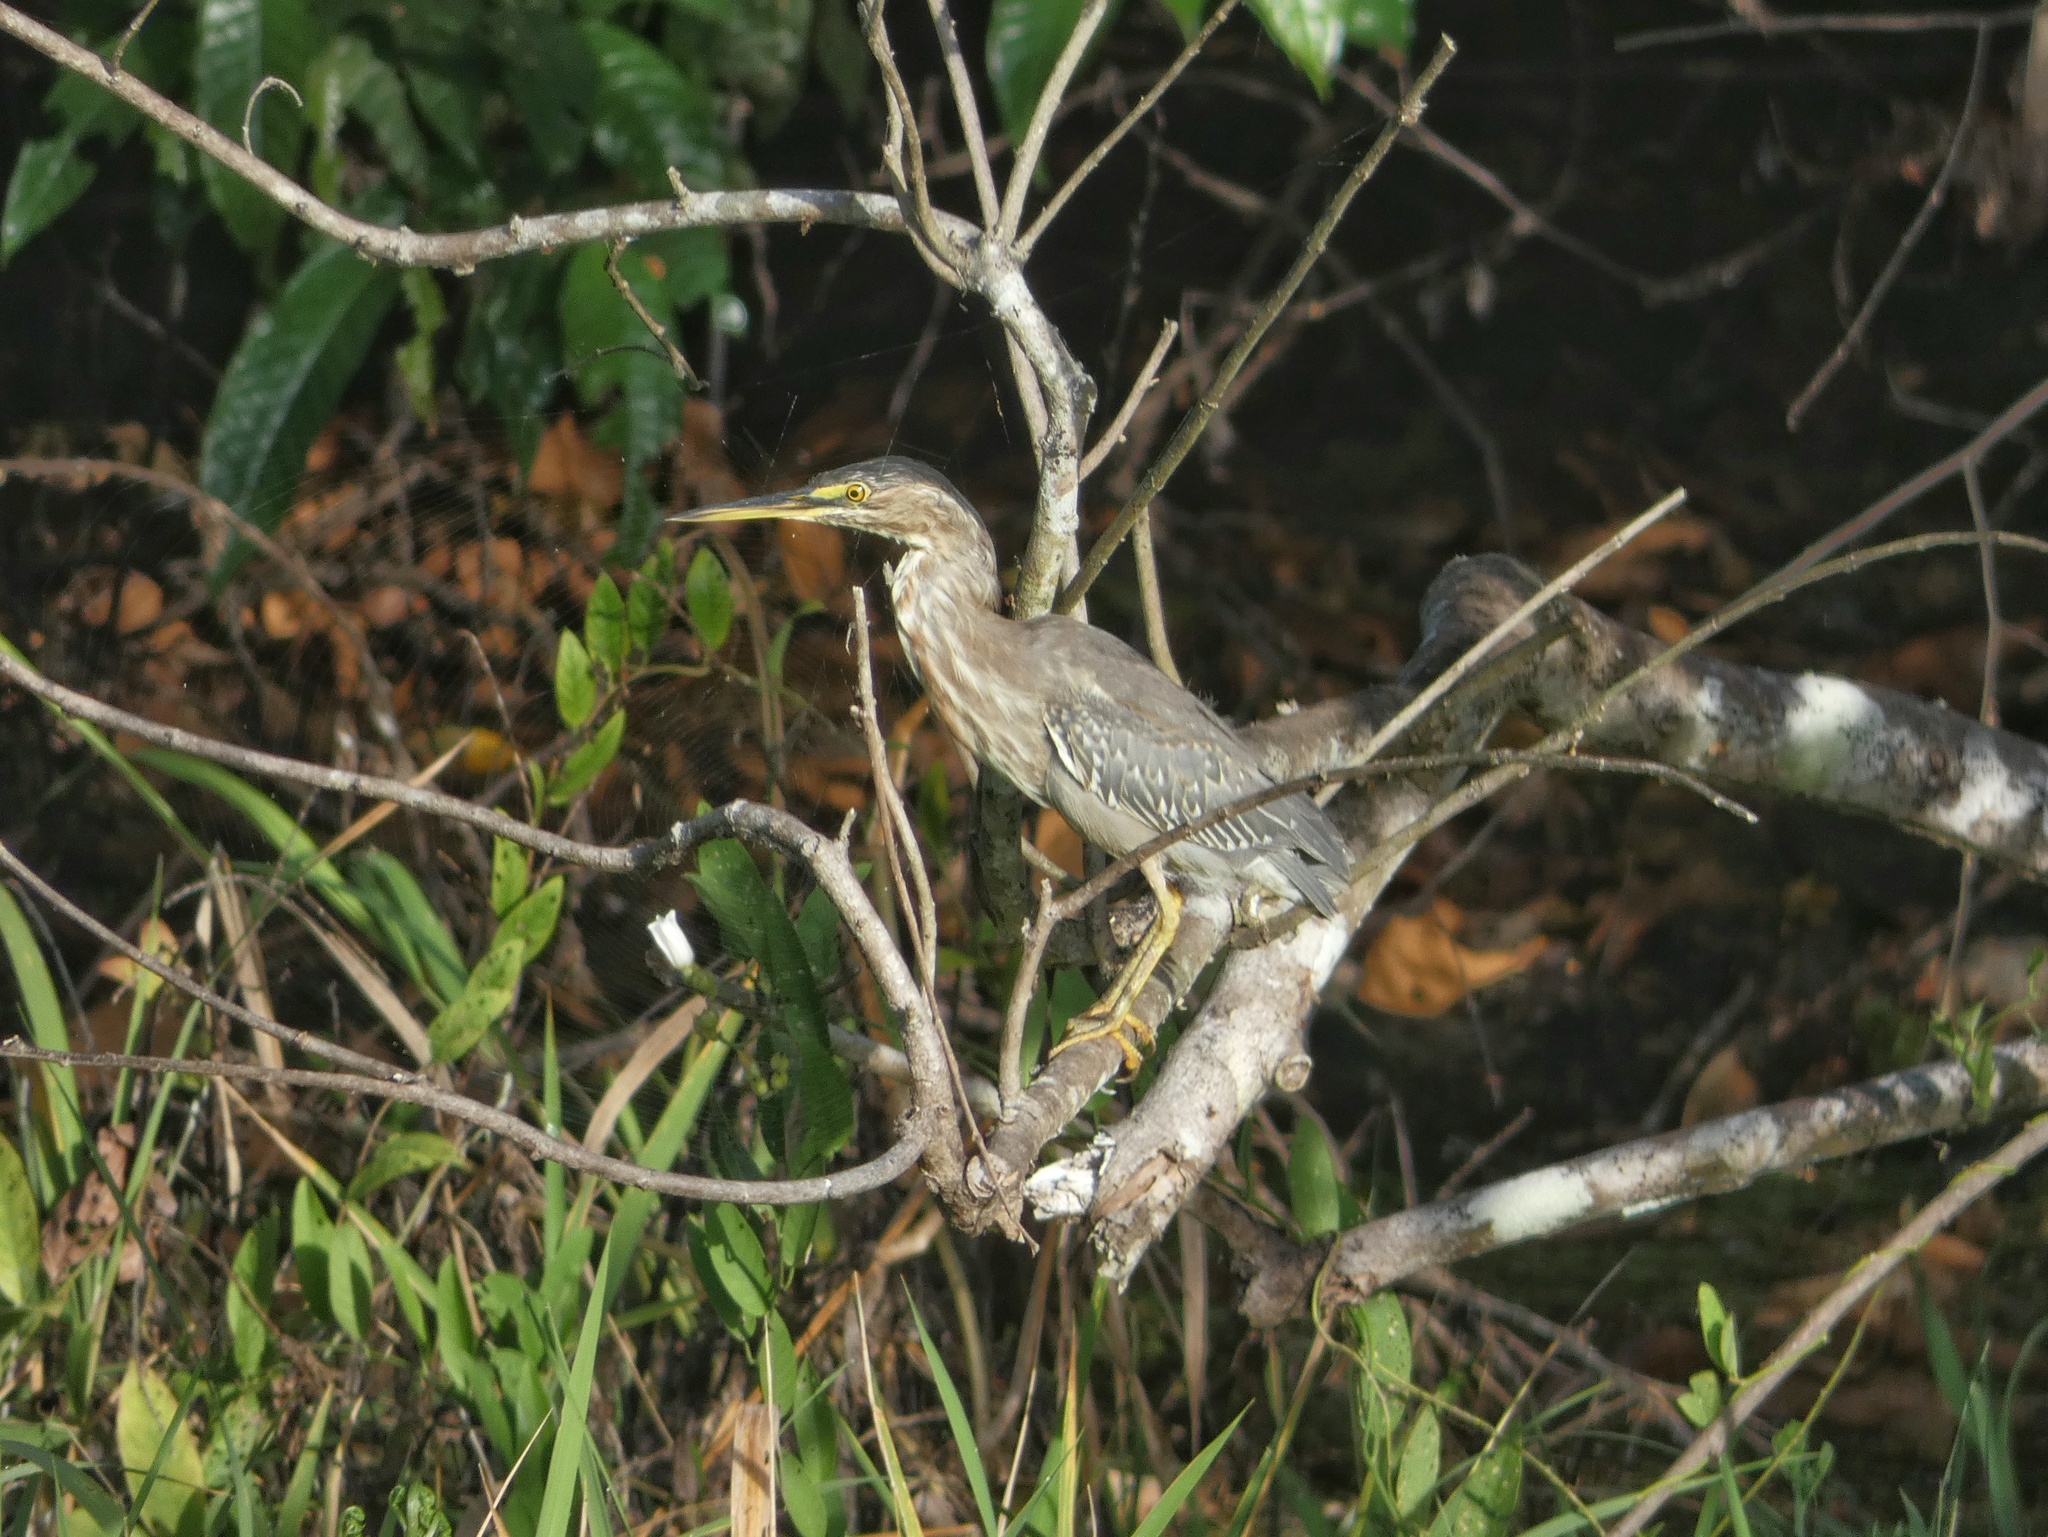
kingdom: Animalia
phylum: Chordata
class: Aves
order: Pelecaniformes
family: Ardeidae
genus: Butorides
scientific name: Butorides
